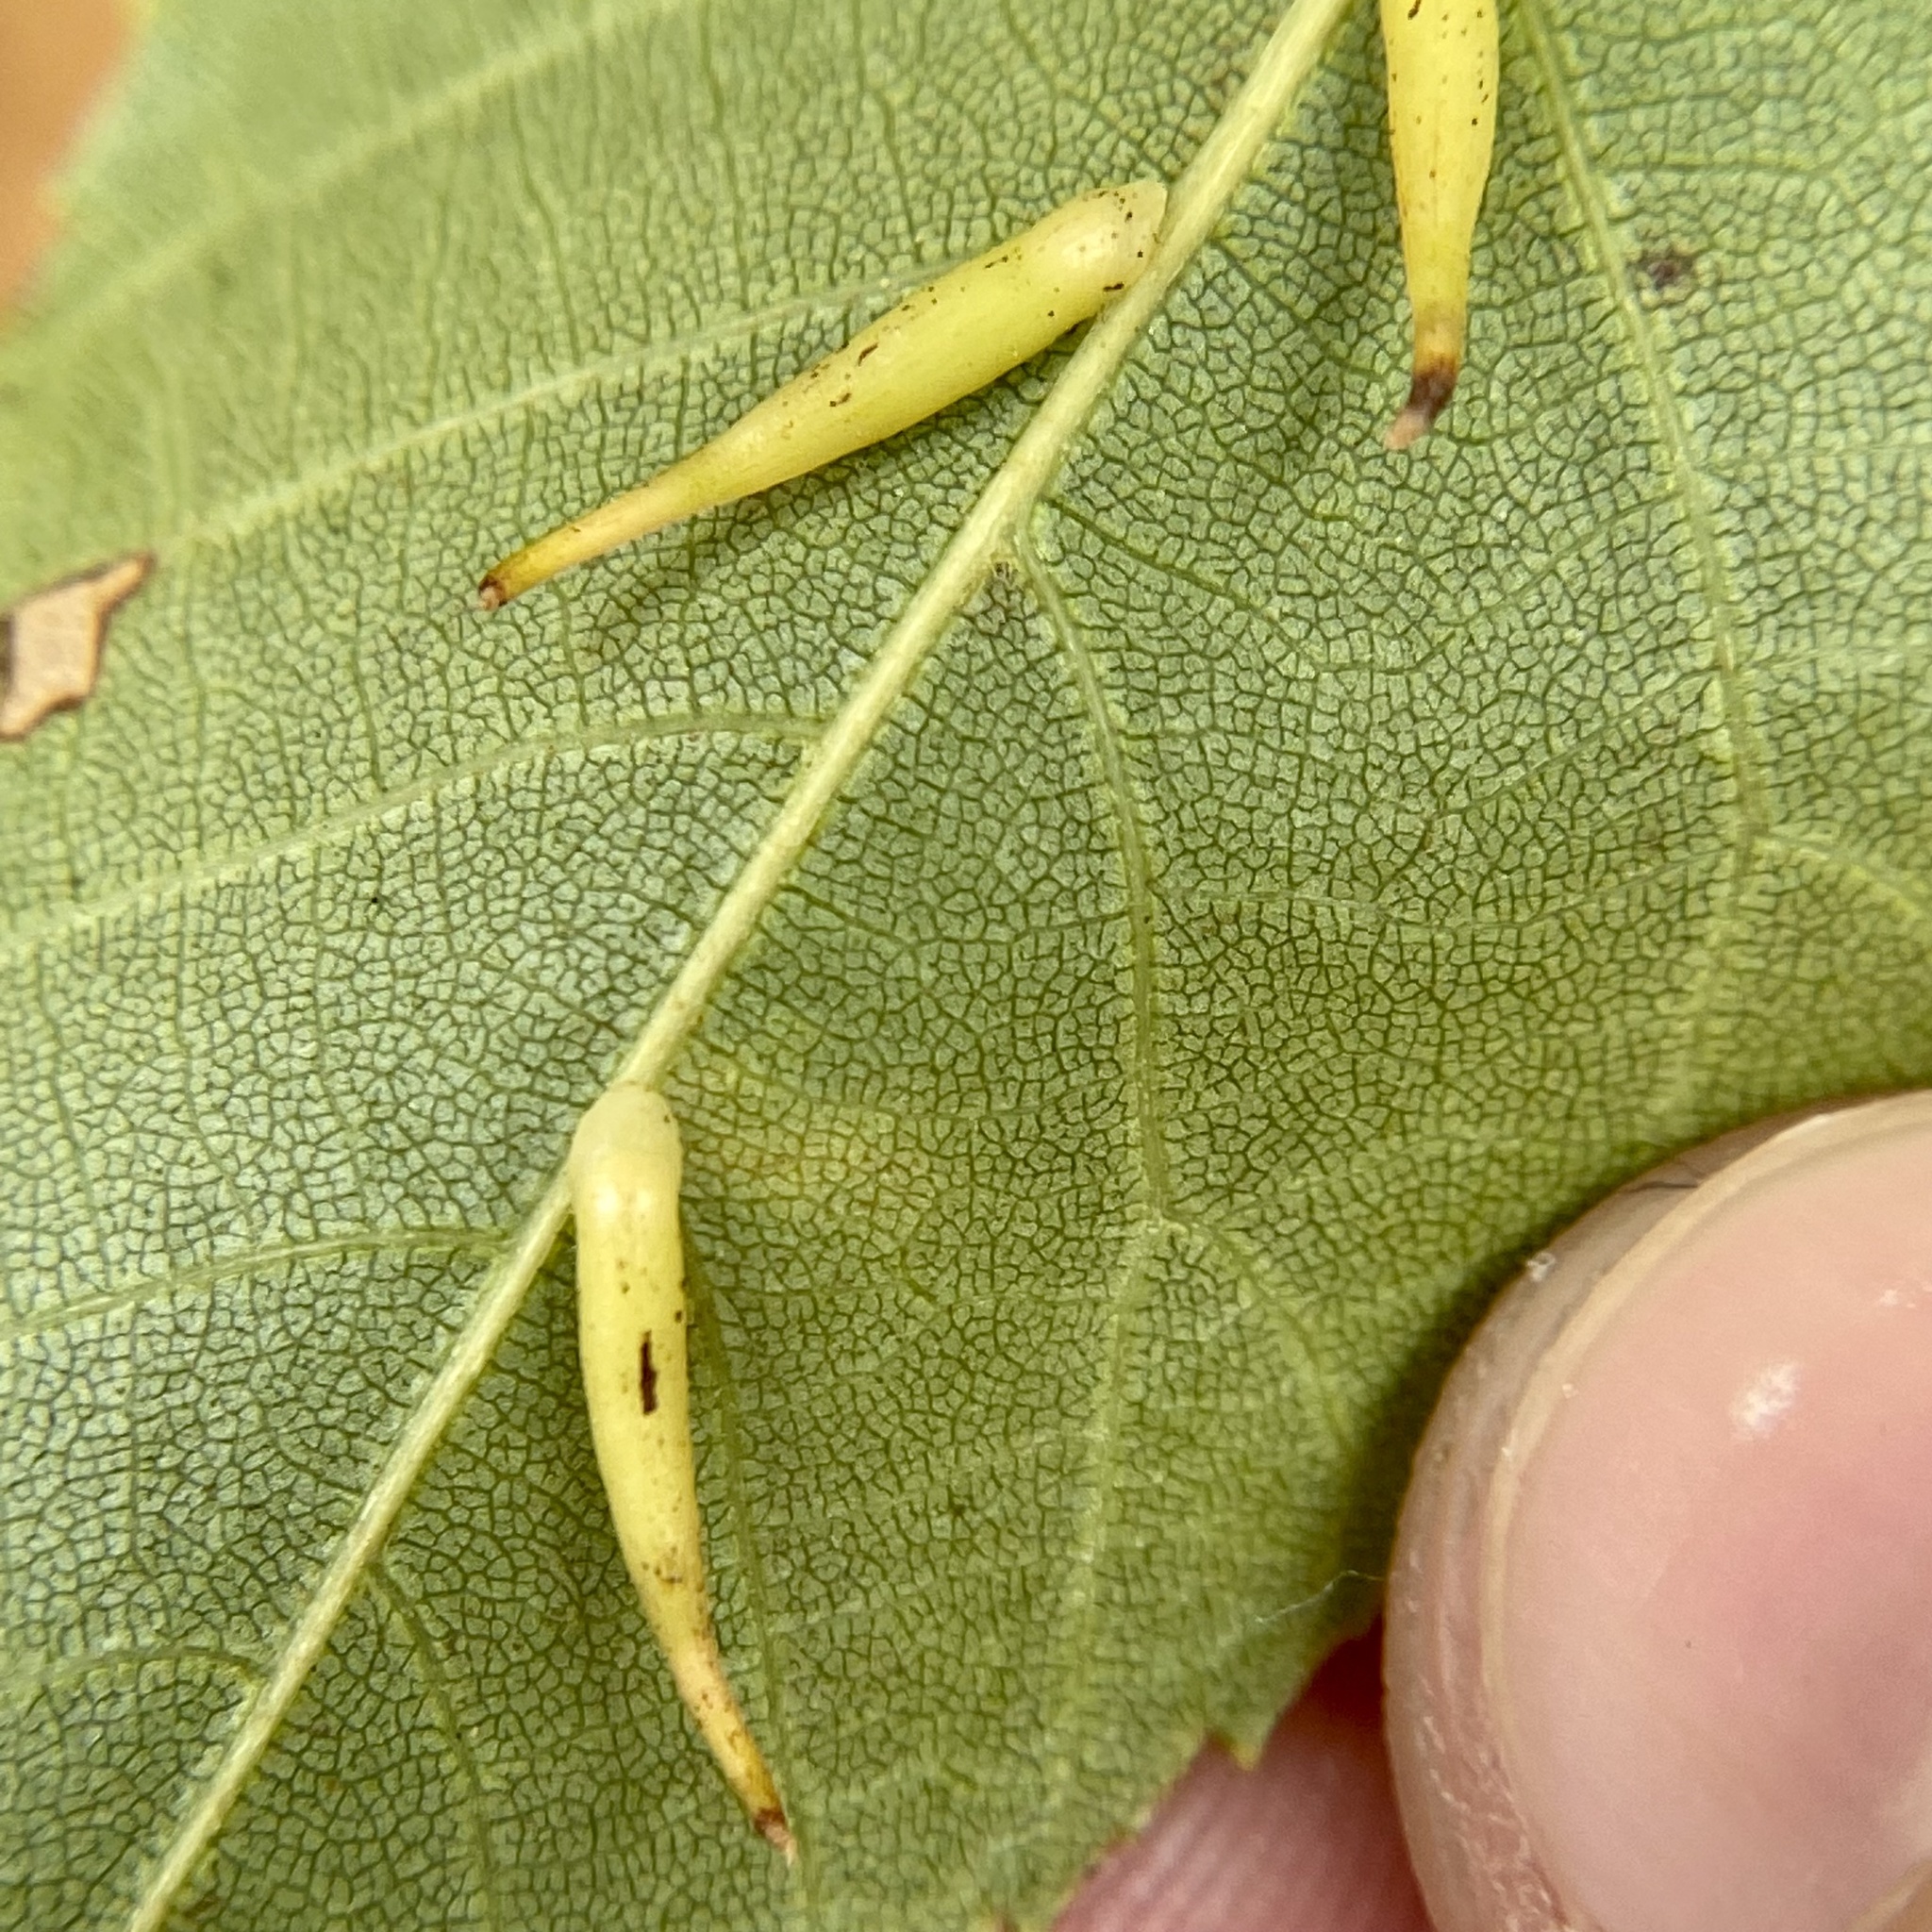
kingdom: Animalia
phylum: Arthropoda
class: Insecta
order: Diptera
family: Cecidomyiidae
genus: Caryomyia
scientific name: Caryomyia
